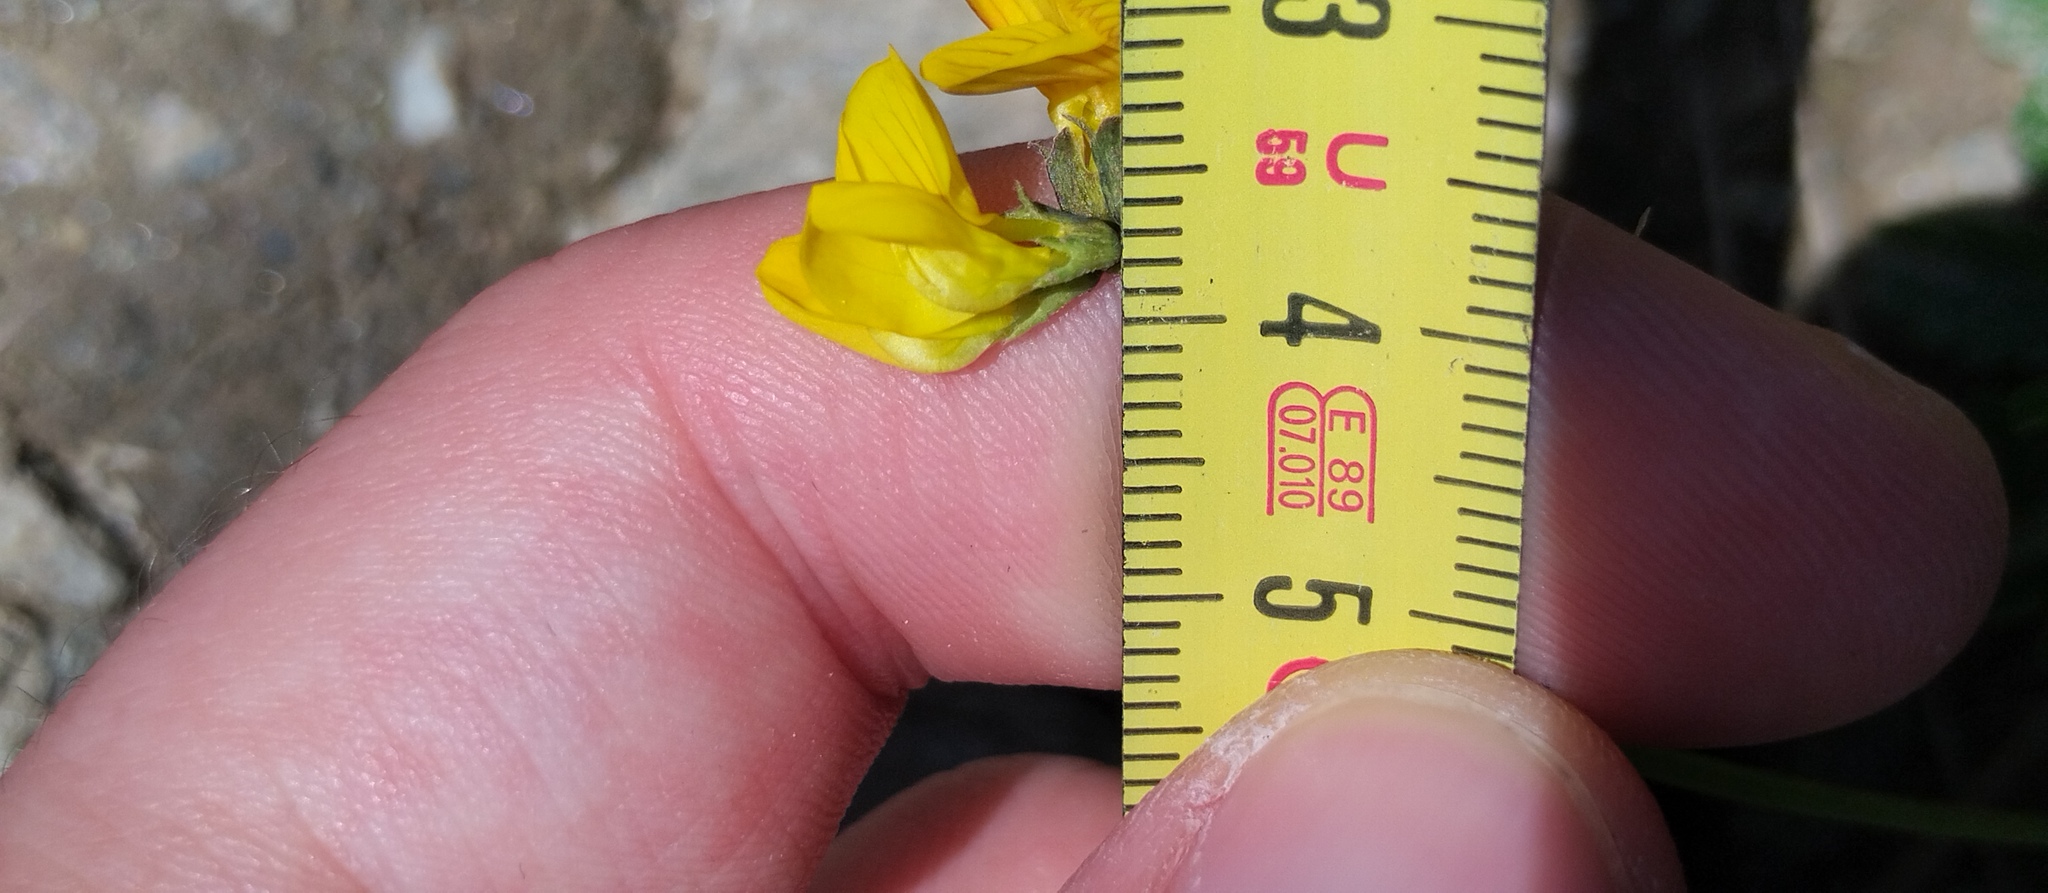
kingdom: Plantae
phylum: Tracheophyta
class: Magnoliopsida
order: Fabales
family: Fabaceae
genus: Hippocrepis
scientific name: Hippocrepis comosa
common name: Horseshoe vetch
